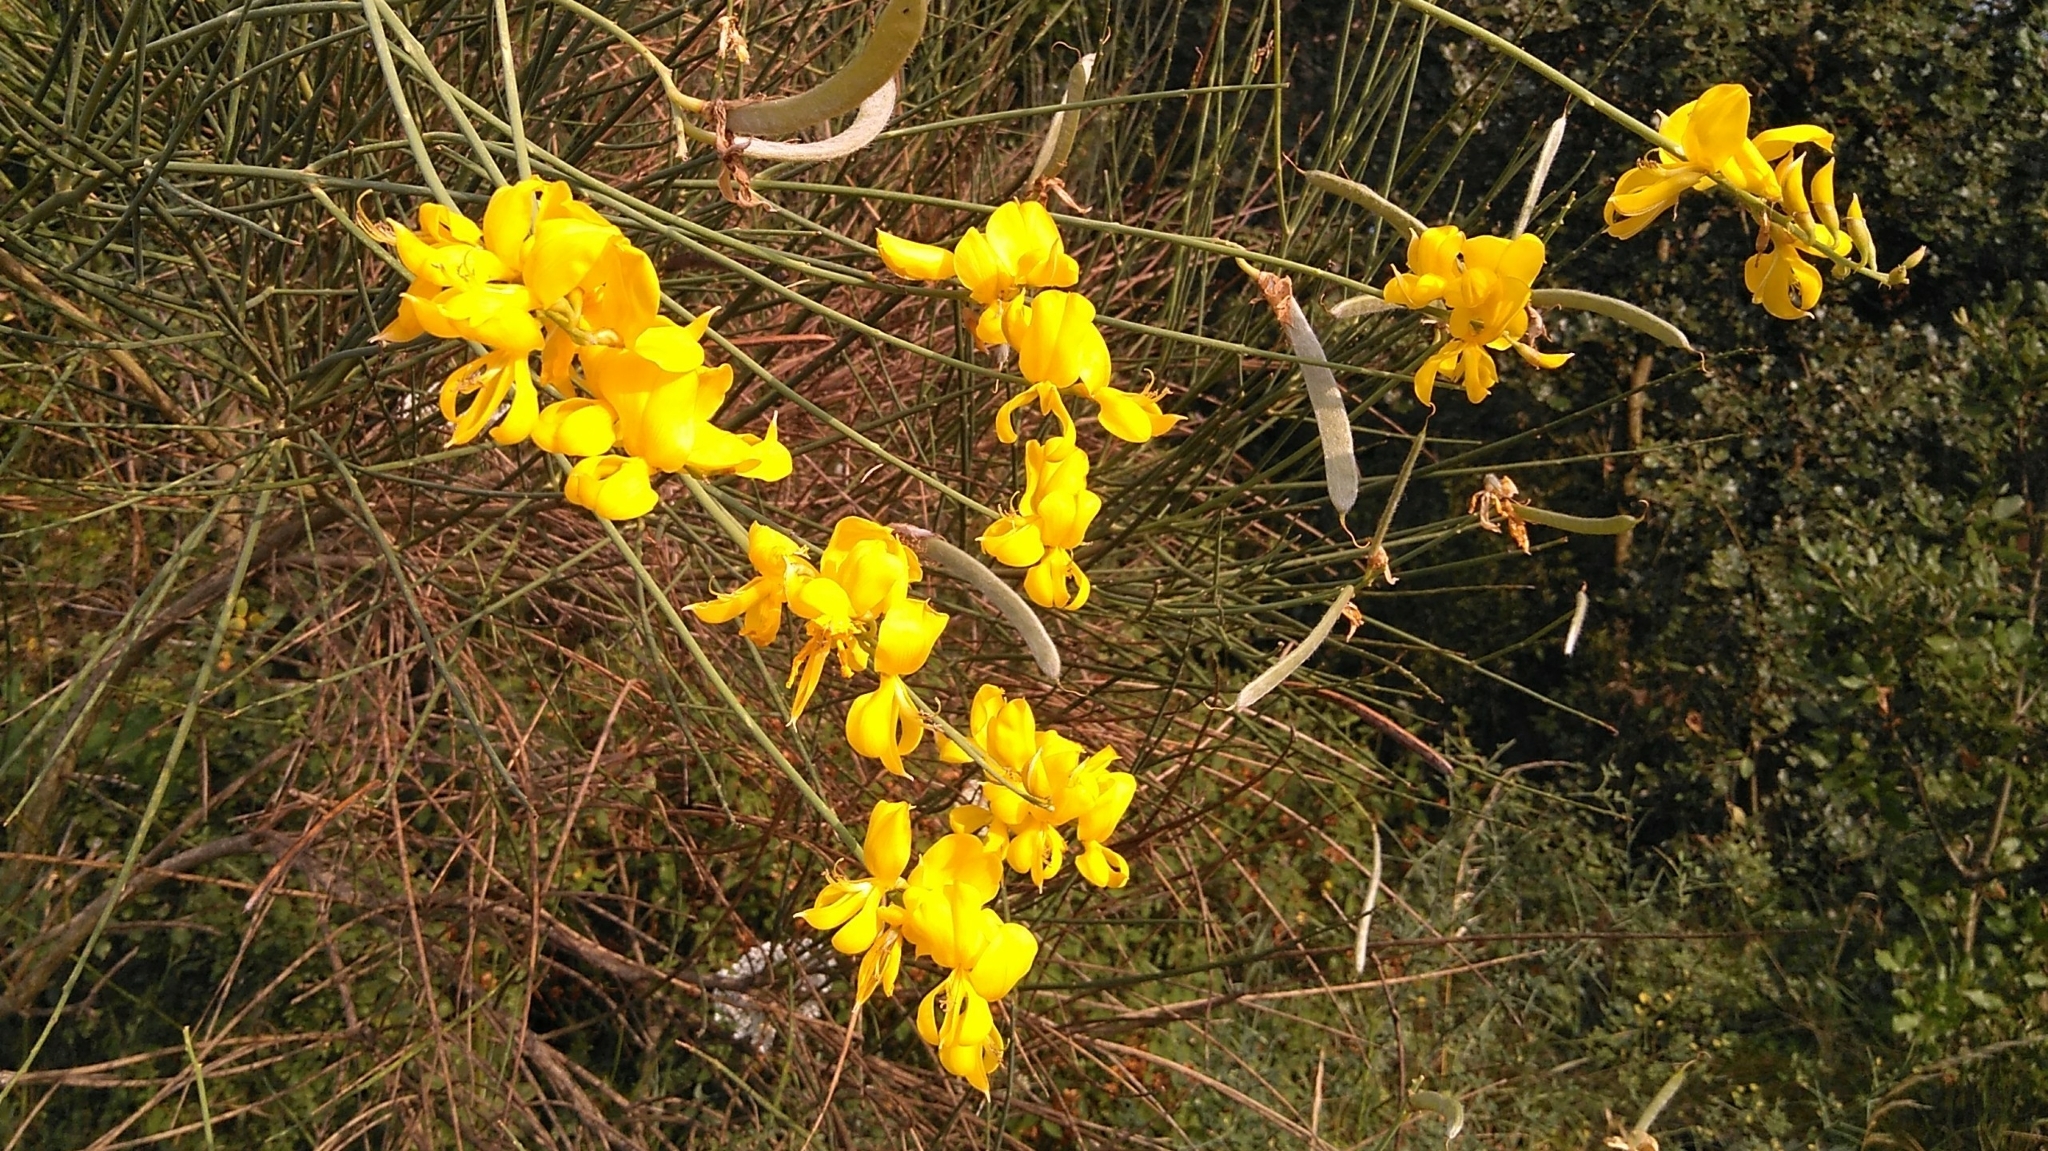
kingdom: Plantae
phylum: Tracheophyta
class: Magnoliopsida
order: Fabales
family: Fabaceae
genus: Spartium
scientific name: Spartium junceum
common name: Spanish broom
